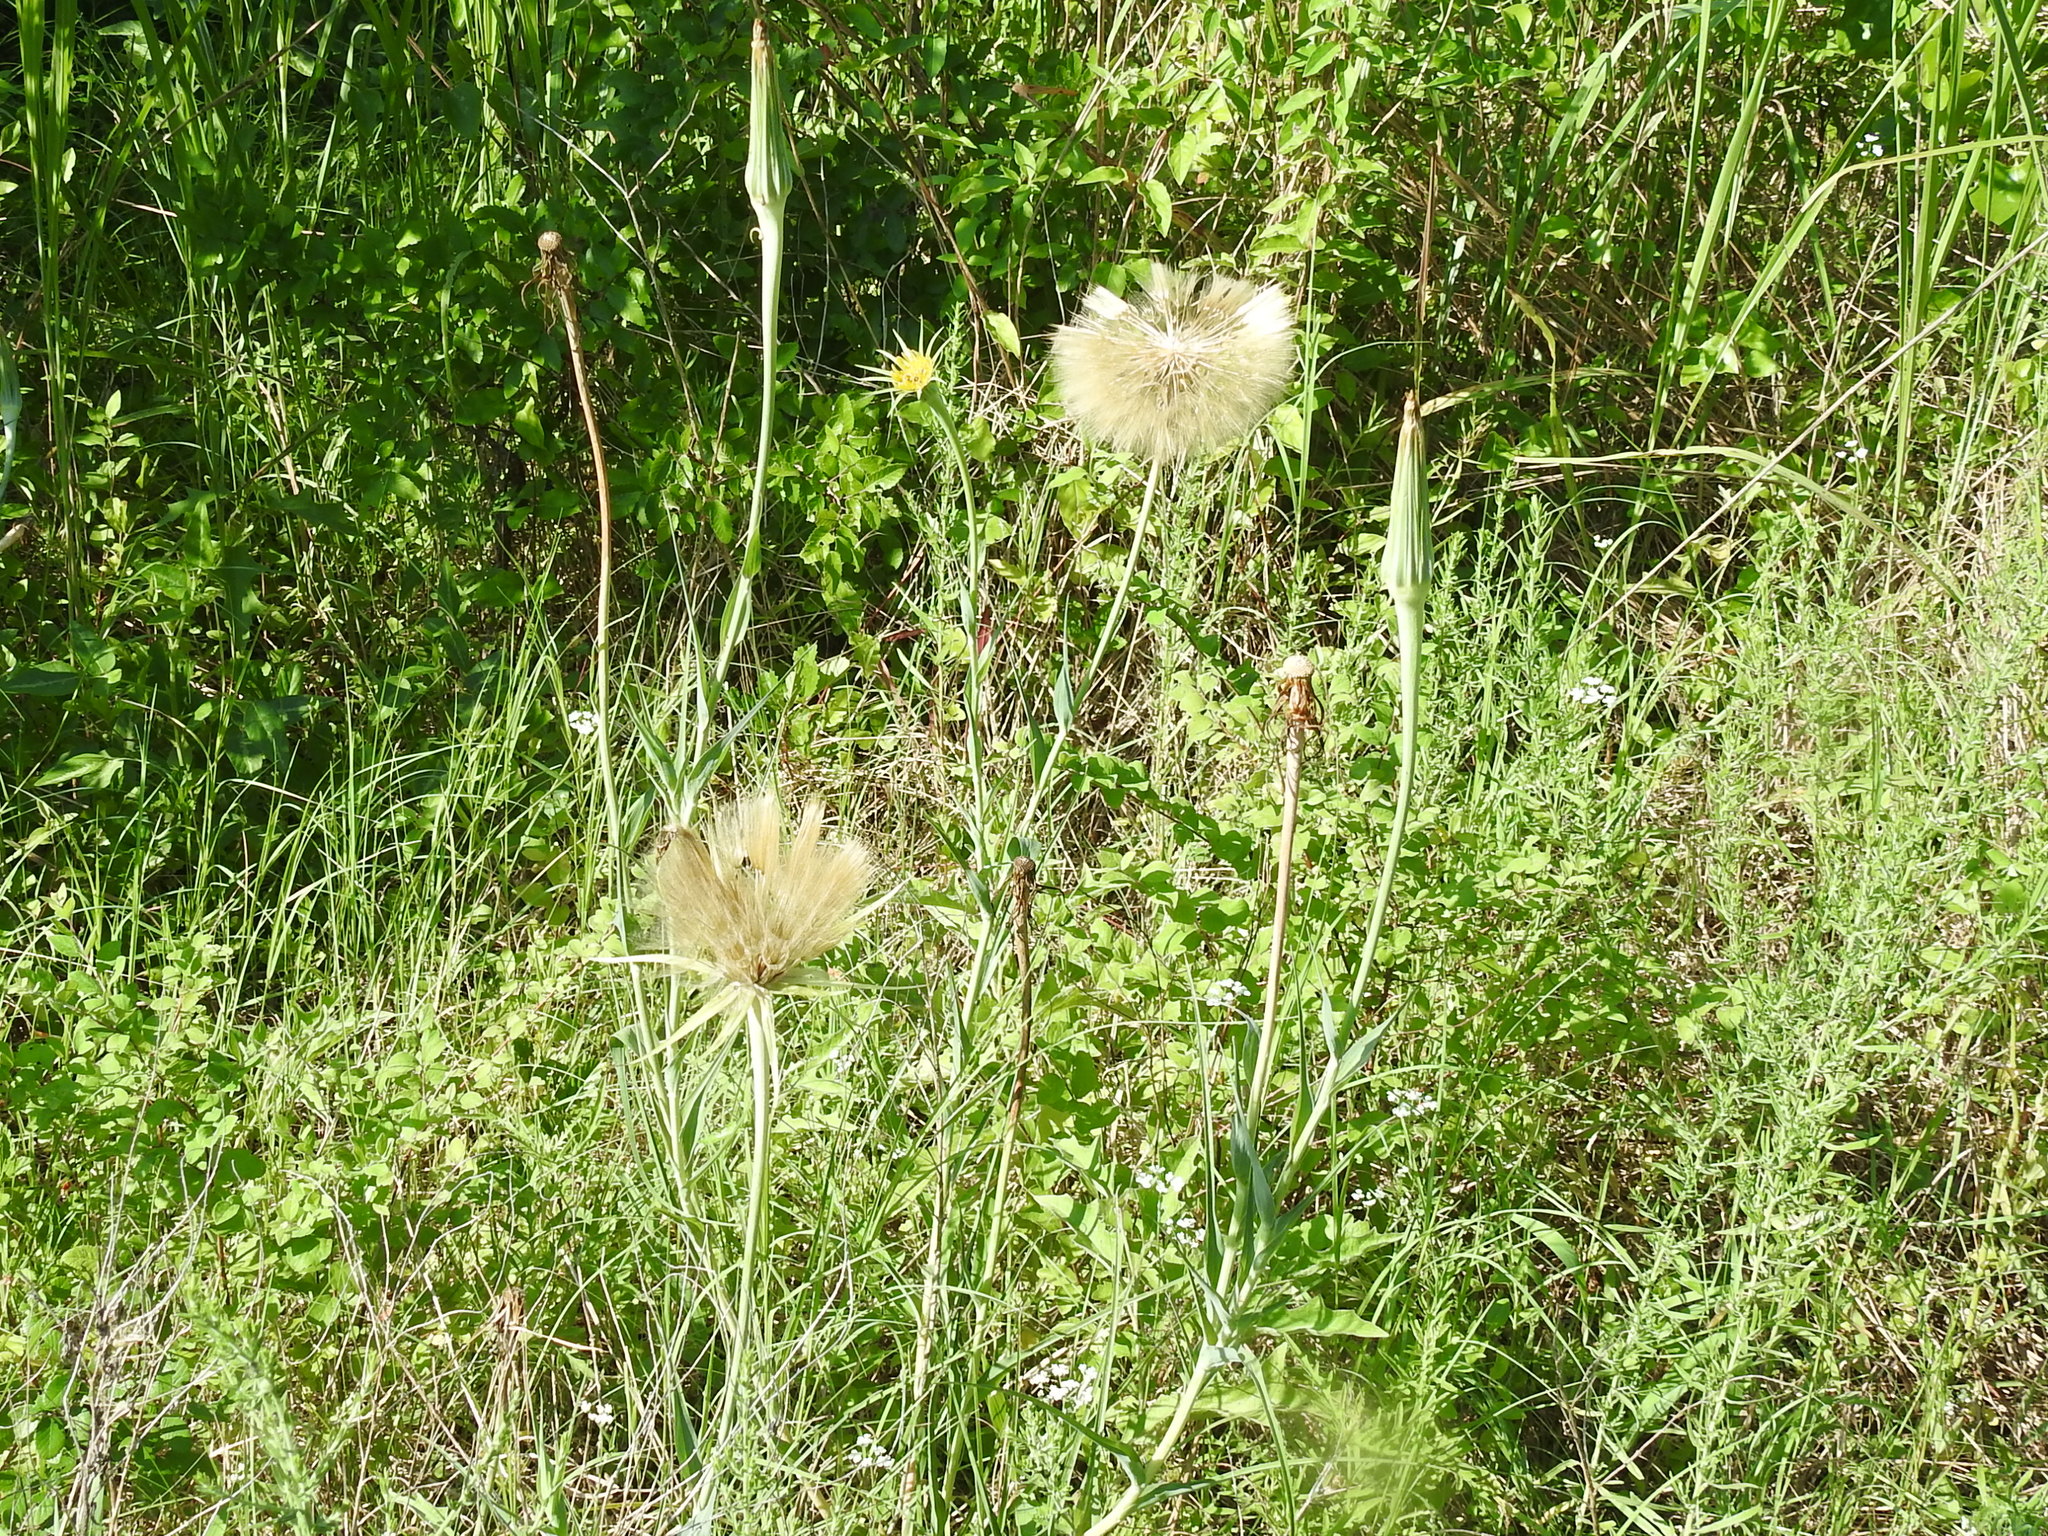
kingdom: Plantae
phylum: Tracheophyta
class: Magnoliopsida
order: Asterales
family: Asteraceae
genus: Tragopogon
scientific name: Tragopogon dubius
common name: Yellow salsify
